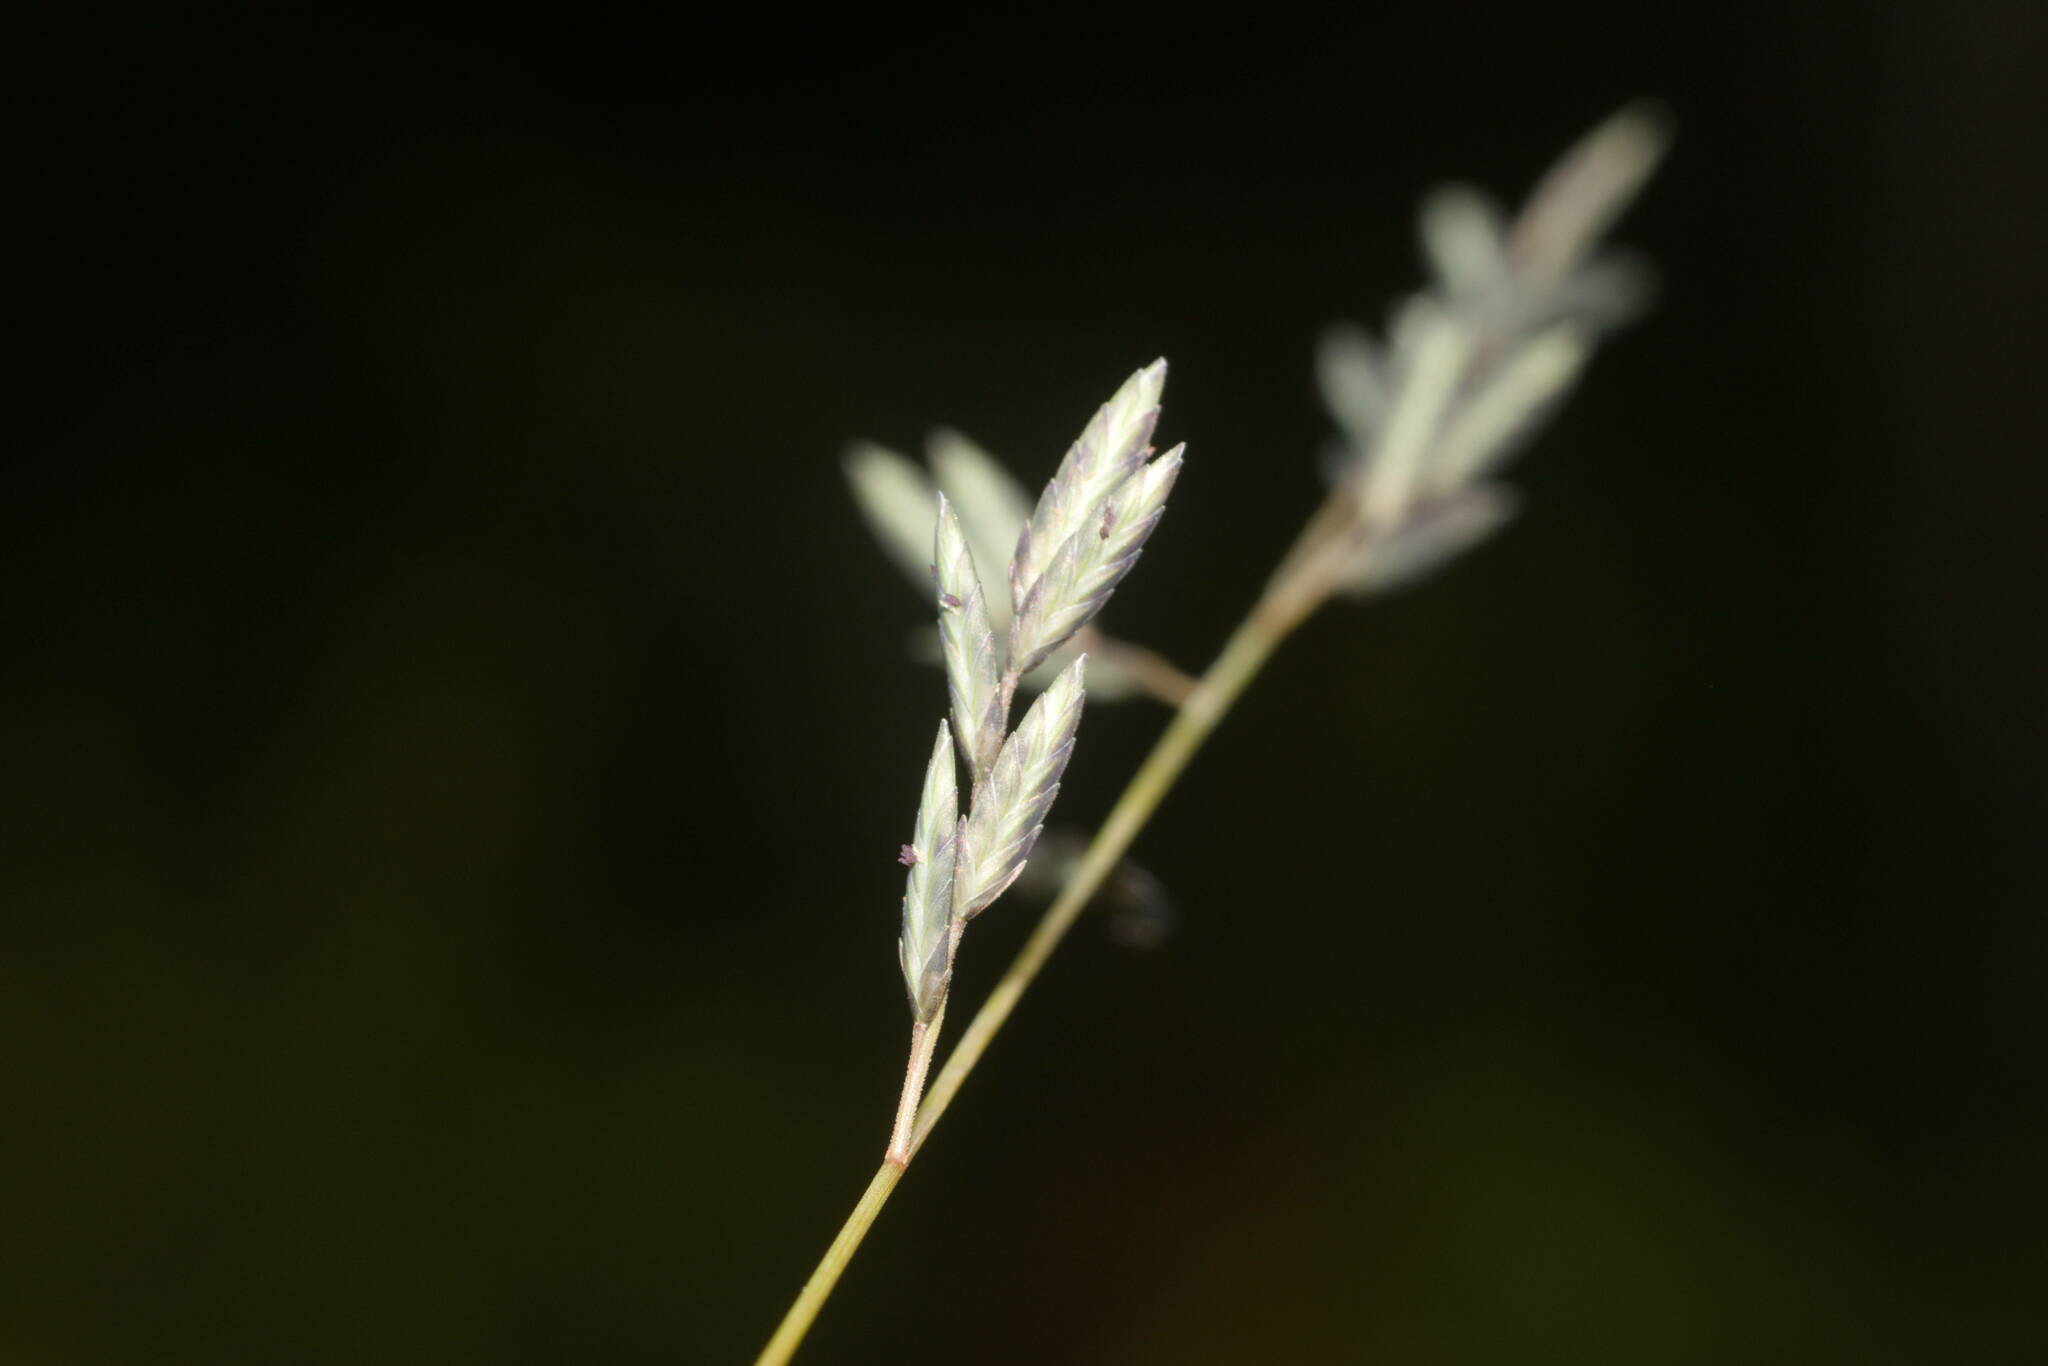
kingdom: Plantae
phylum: Tracheophyta
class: Liliopsida
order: Poales
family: Poaceae
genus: Eragrostis
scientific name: Eragrostis brownii
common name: Lovegrass
